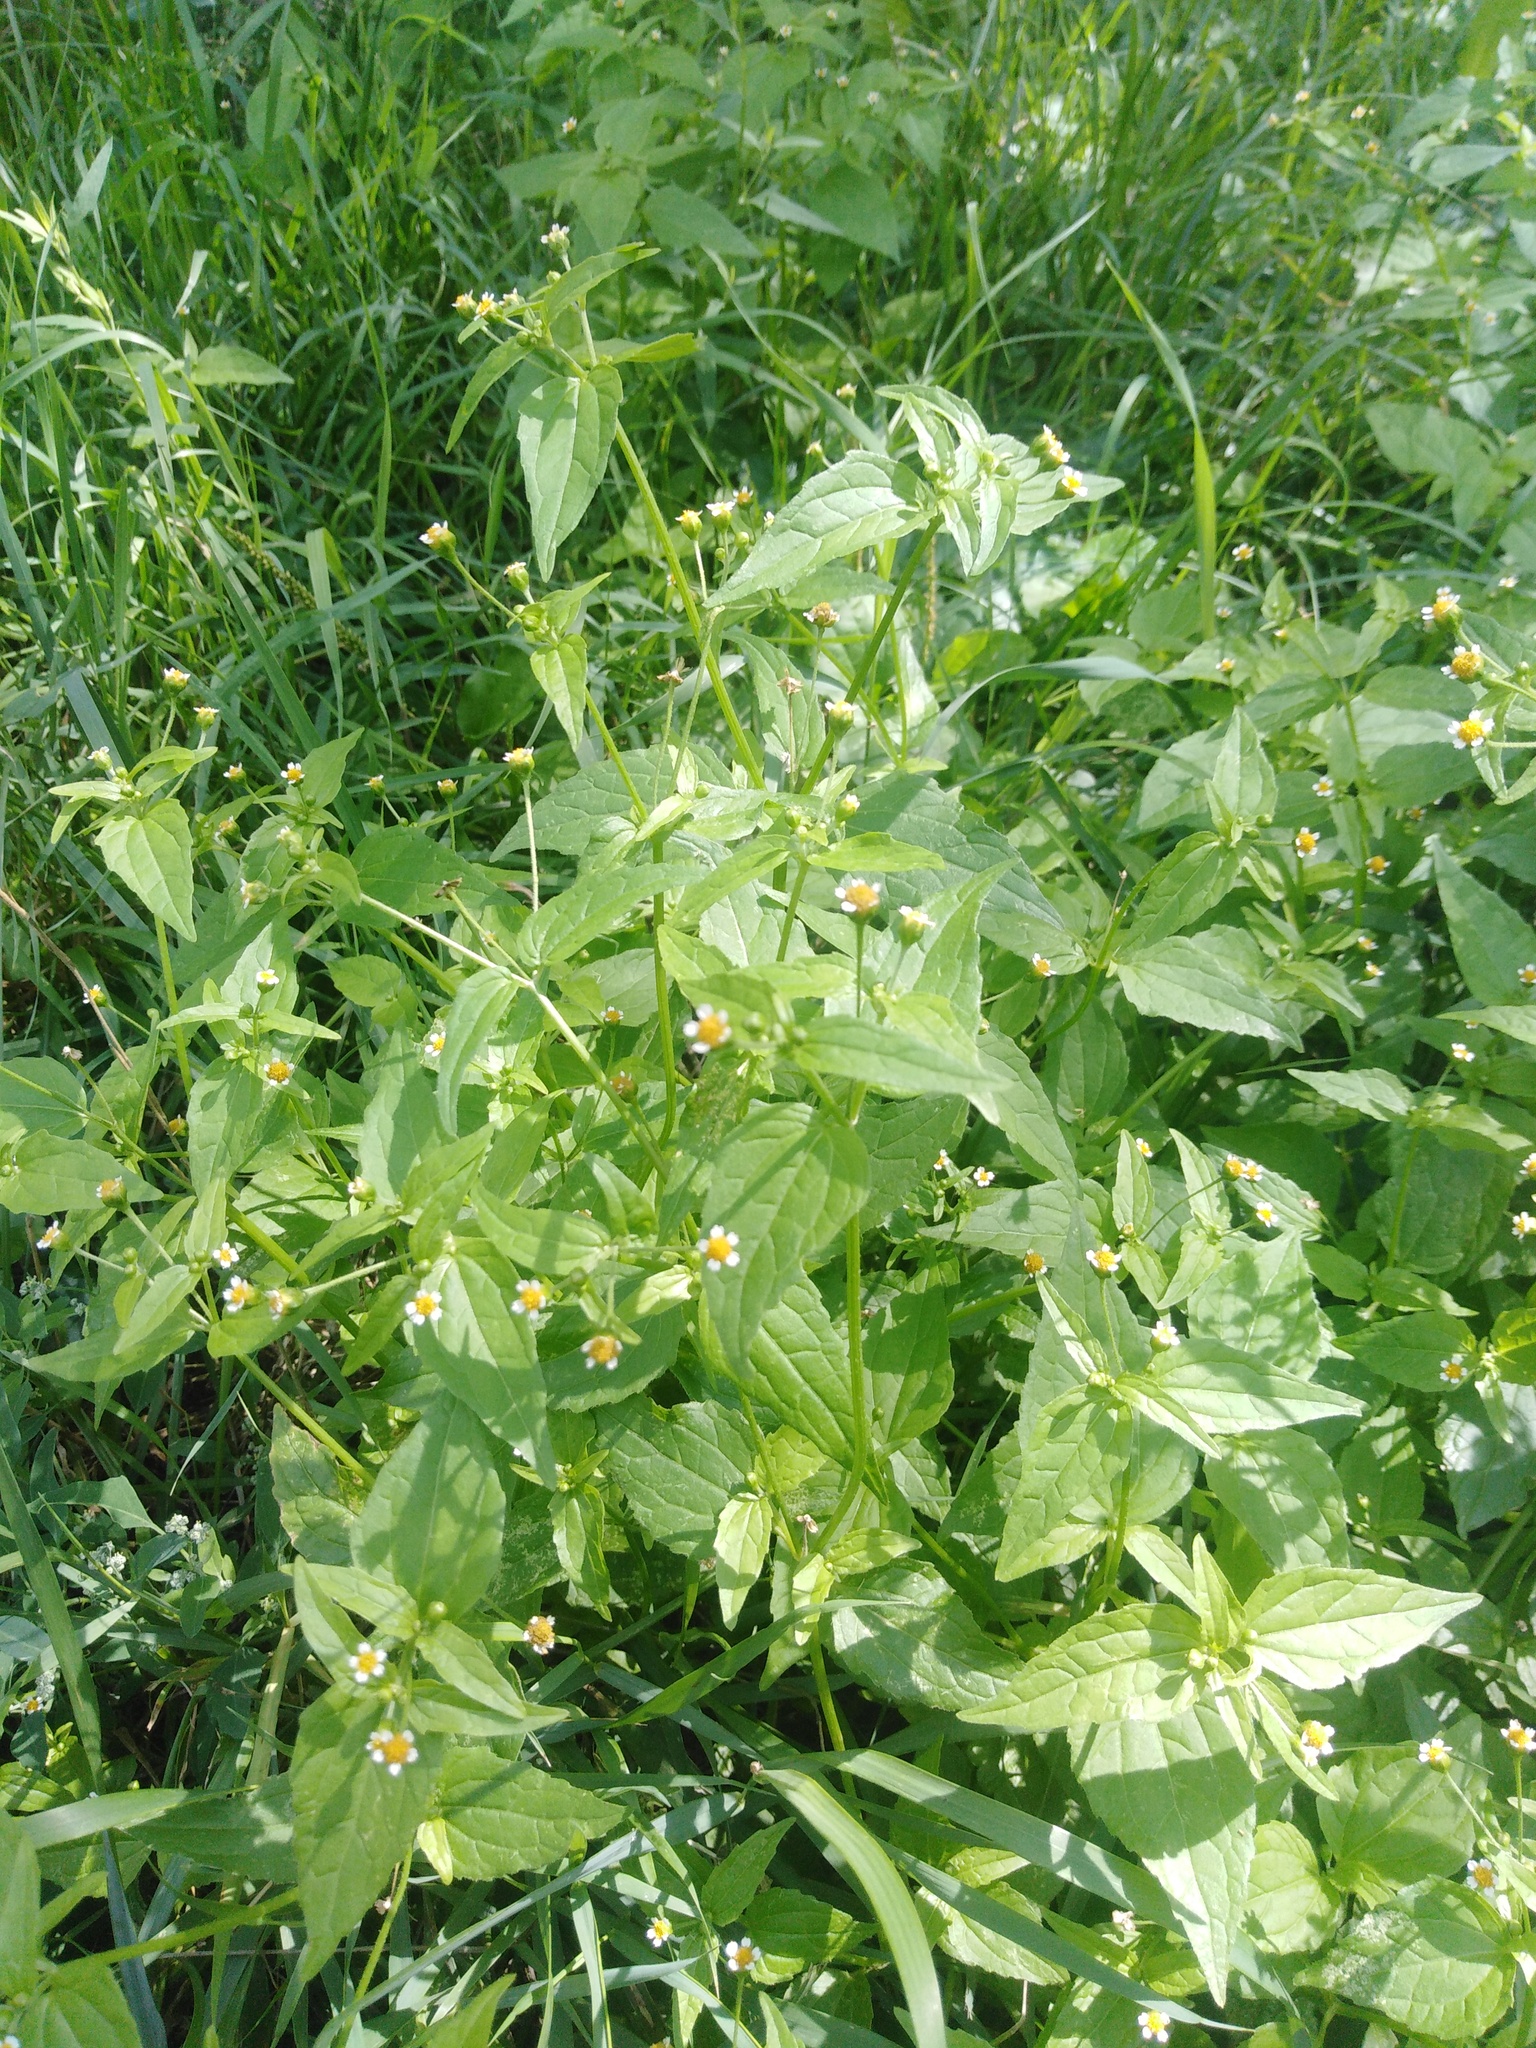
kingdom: Plantae
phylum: Tracheophyta
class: Magnoliopsida
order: Asterales
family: Asteraceae
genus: Galinsoga
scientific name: Galinsoga parviflora
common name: Gallant soldier
